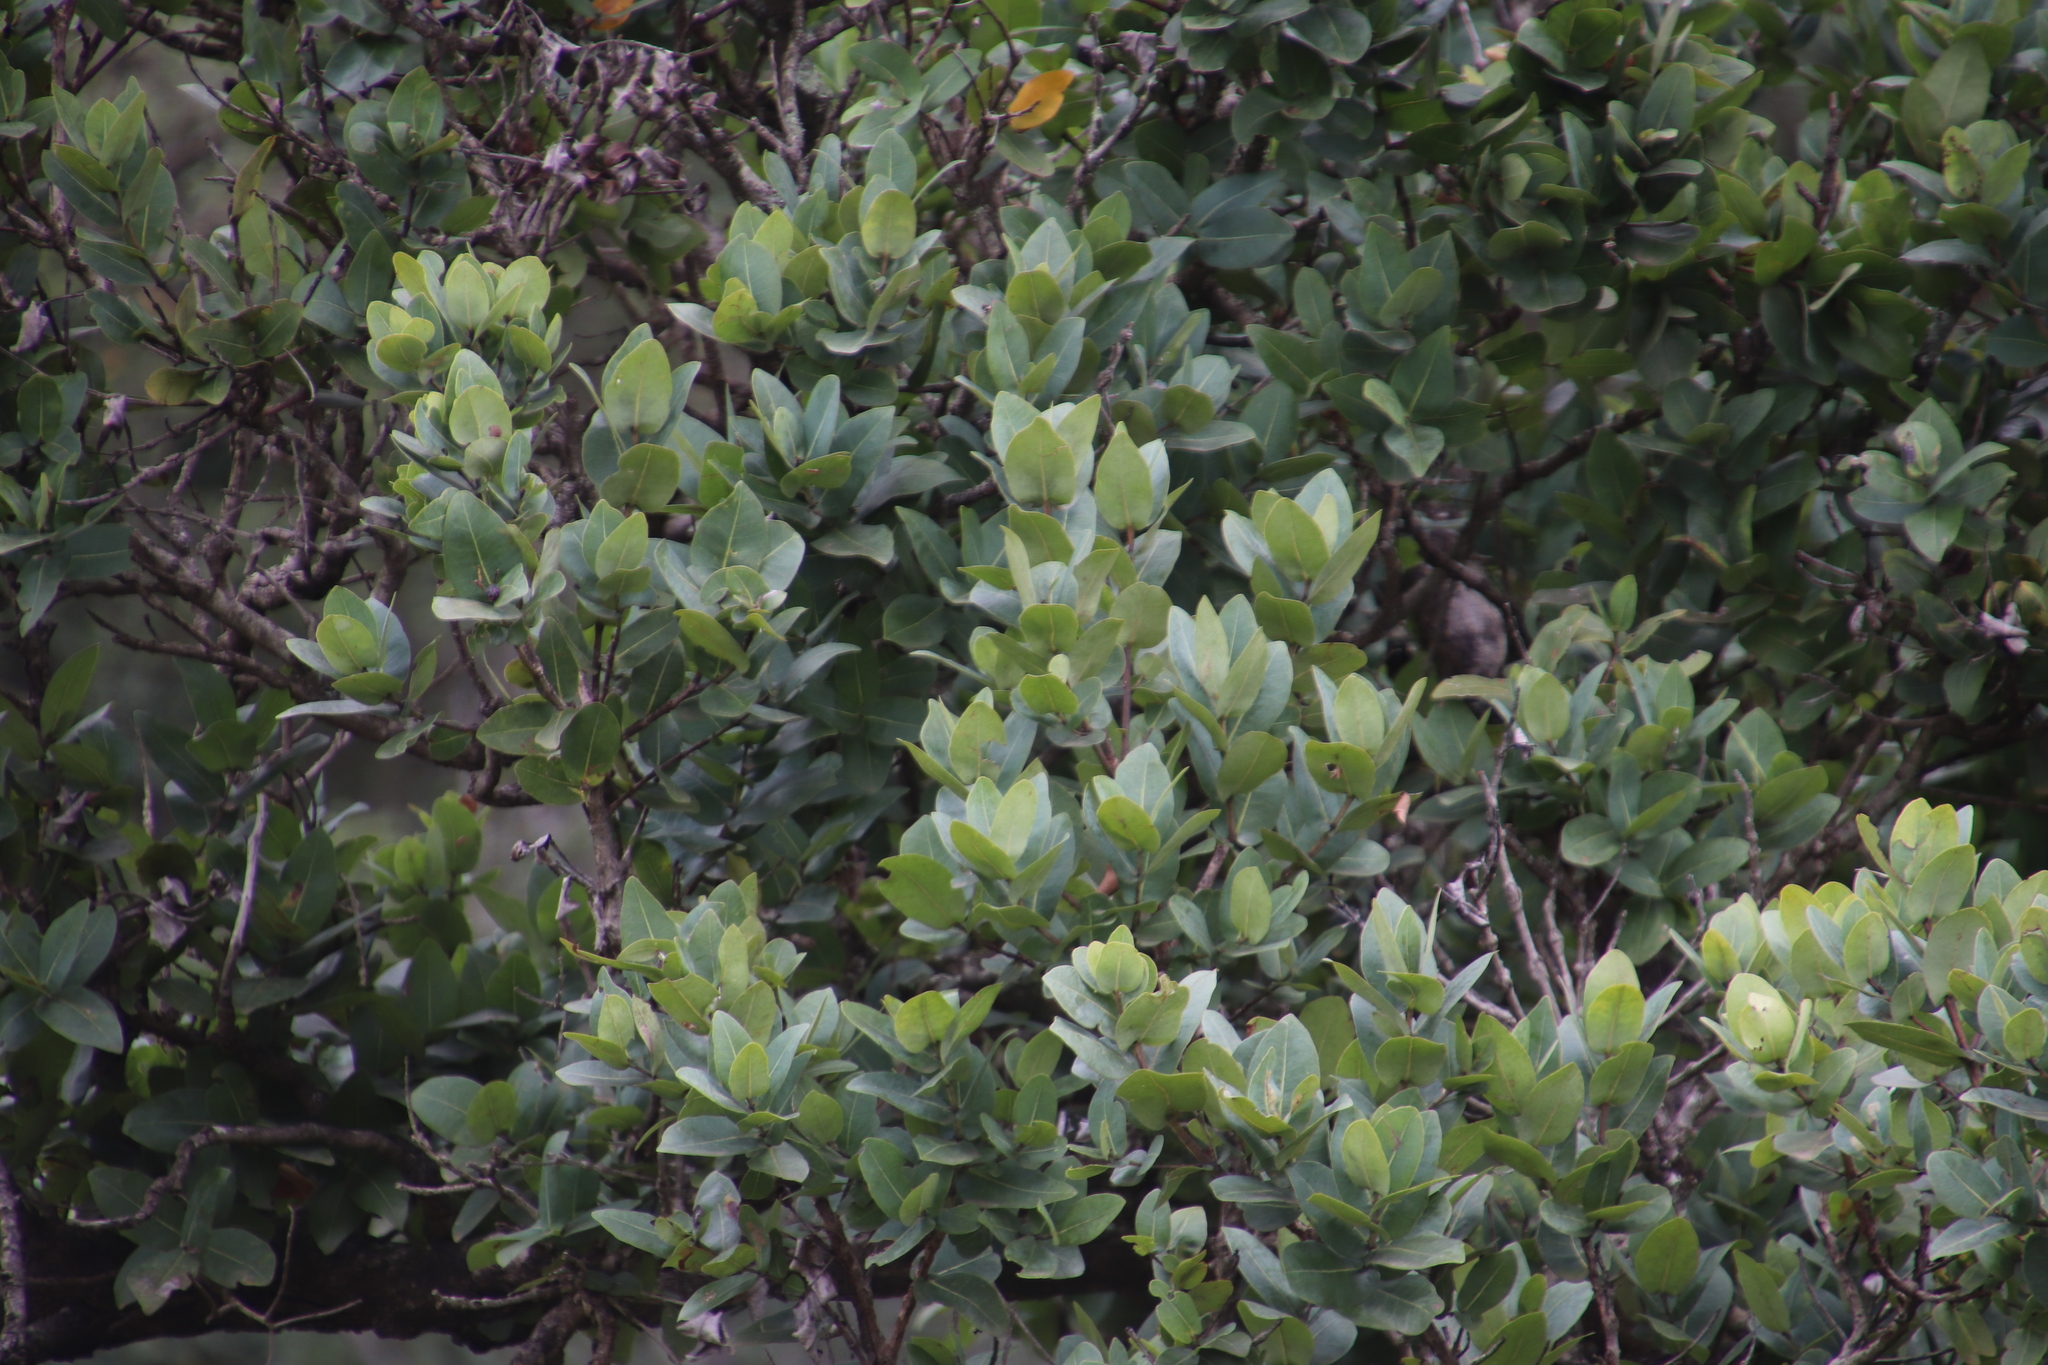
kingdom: Plantae
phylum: Tracheophyta
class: Magnoliopsida
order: Myrtales
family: Myrtaceae
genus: Syzygium
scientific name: Syzygium cordatum
